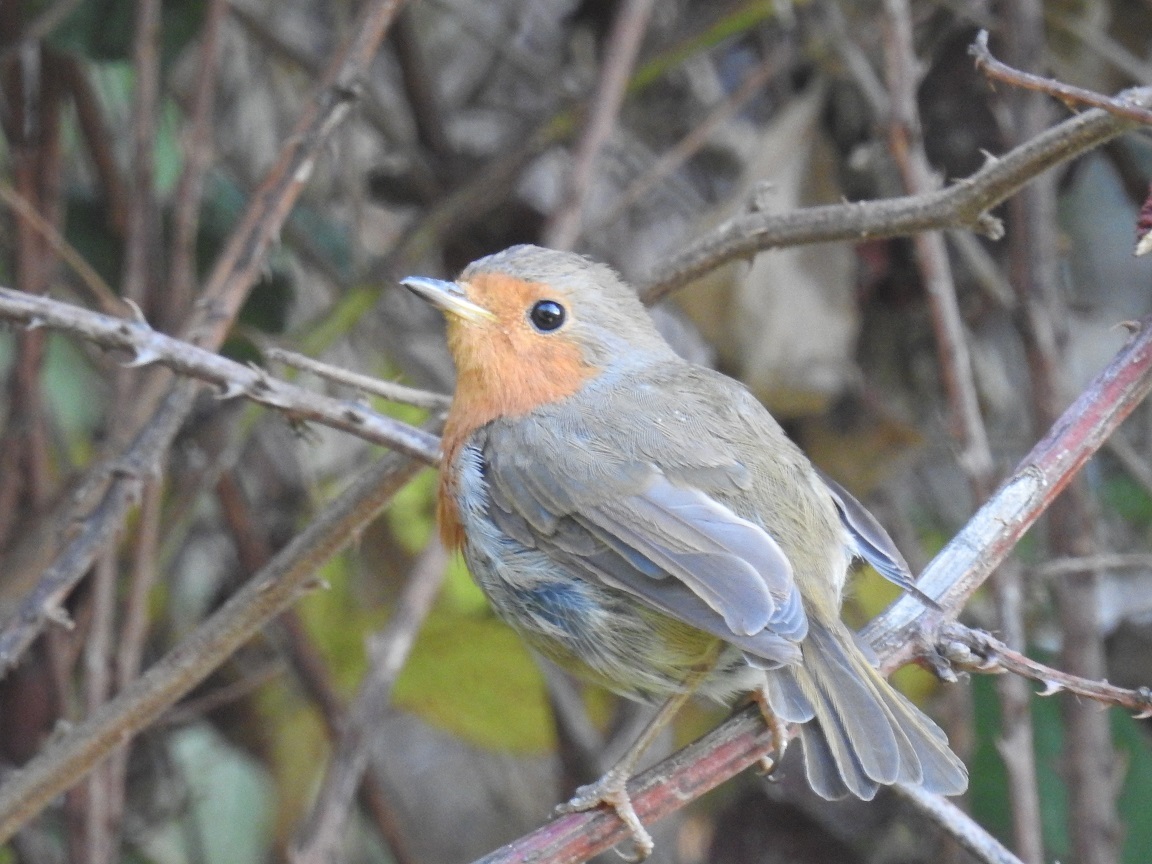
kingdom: Animalia
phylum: Chordata
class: Aves
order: Passeriformes
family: Muscicapidae
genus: Erithacus
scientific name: Erithacus rubecula
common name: European robin
